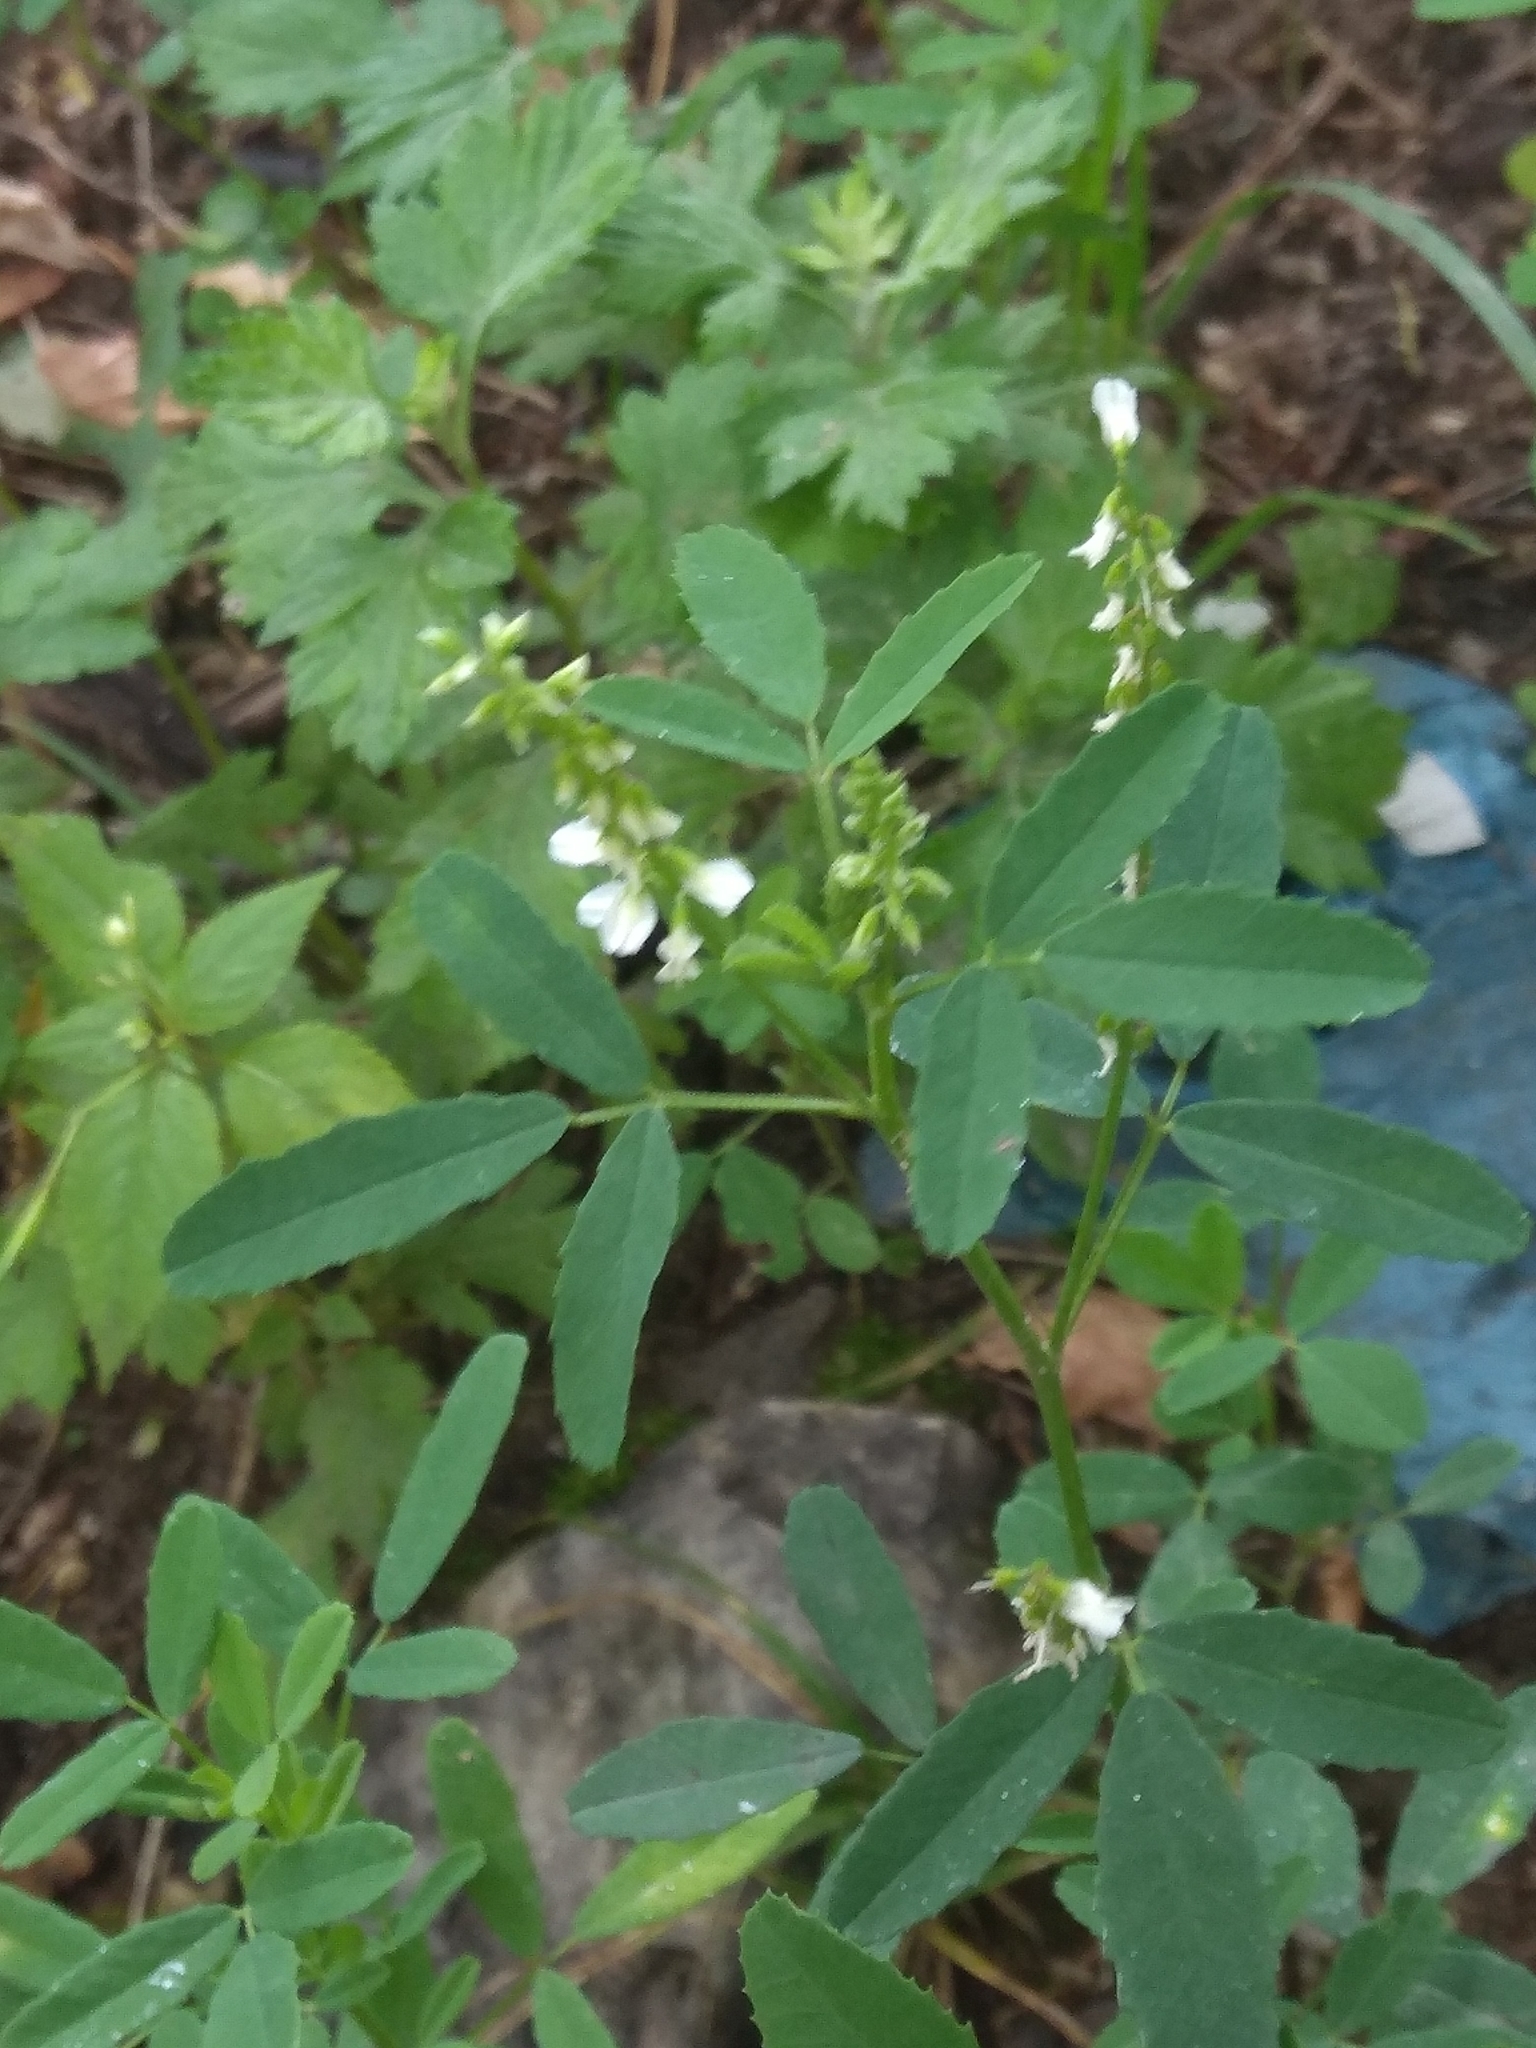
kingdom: Plantae
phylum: Tracheophyta
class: Magnoliopsida
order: Fabales
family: Fabaceae
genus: Melilotus
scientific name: Melilotus albus
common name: White melilot
